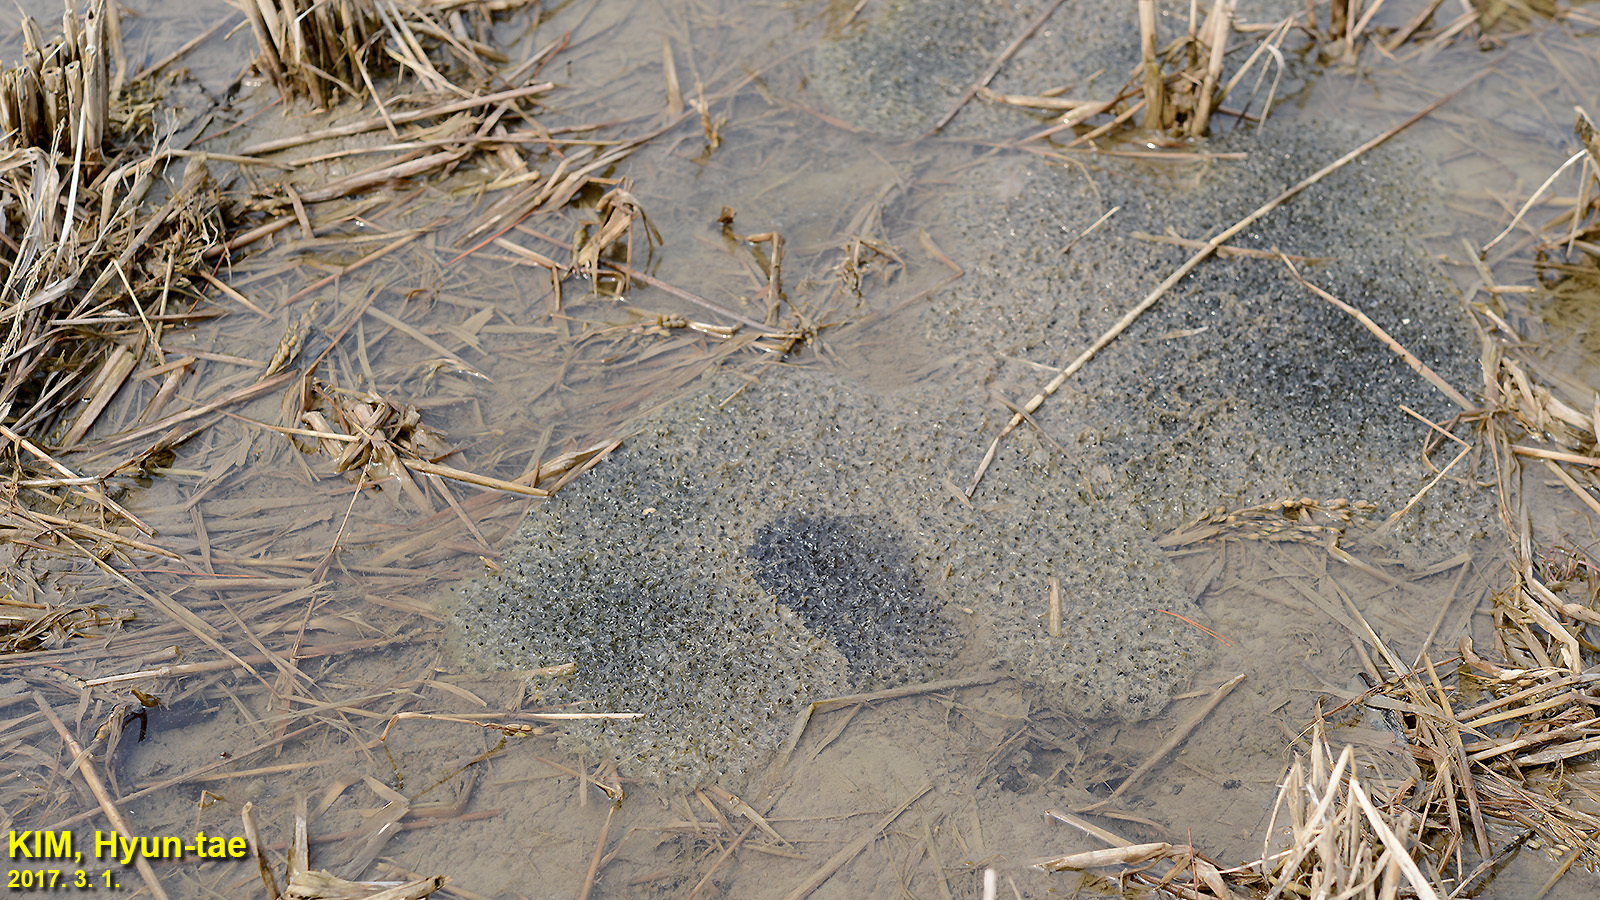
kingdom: Animalia
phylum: Chordata
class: Amphibia
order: Anura
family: Ranidae
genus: Rana
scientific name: Rana uenoi
